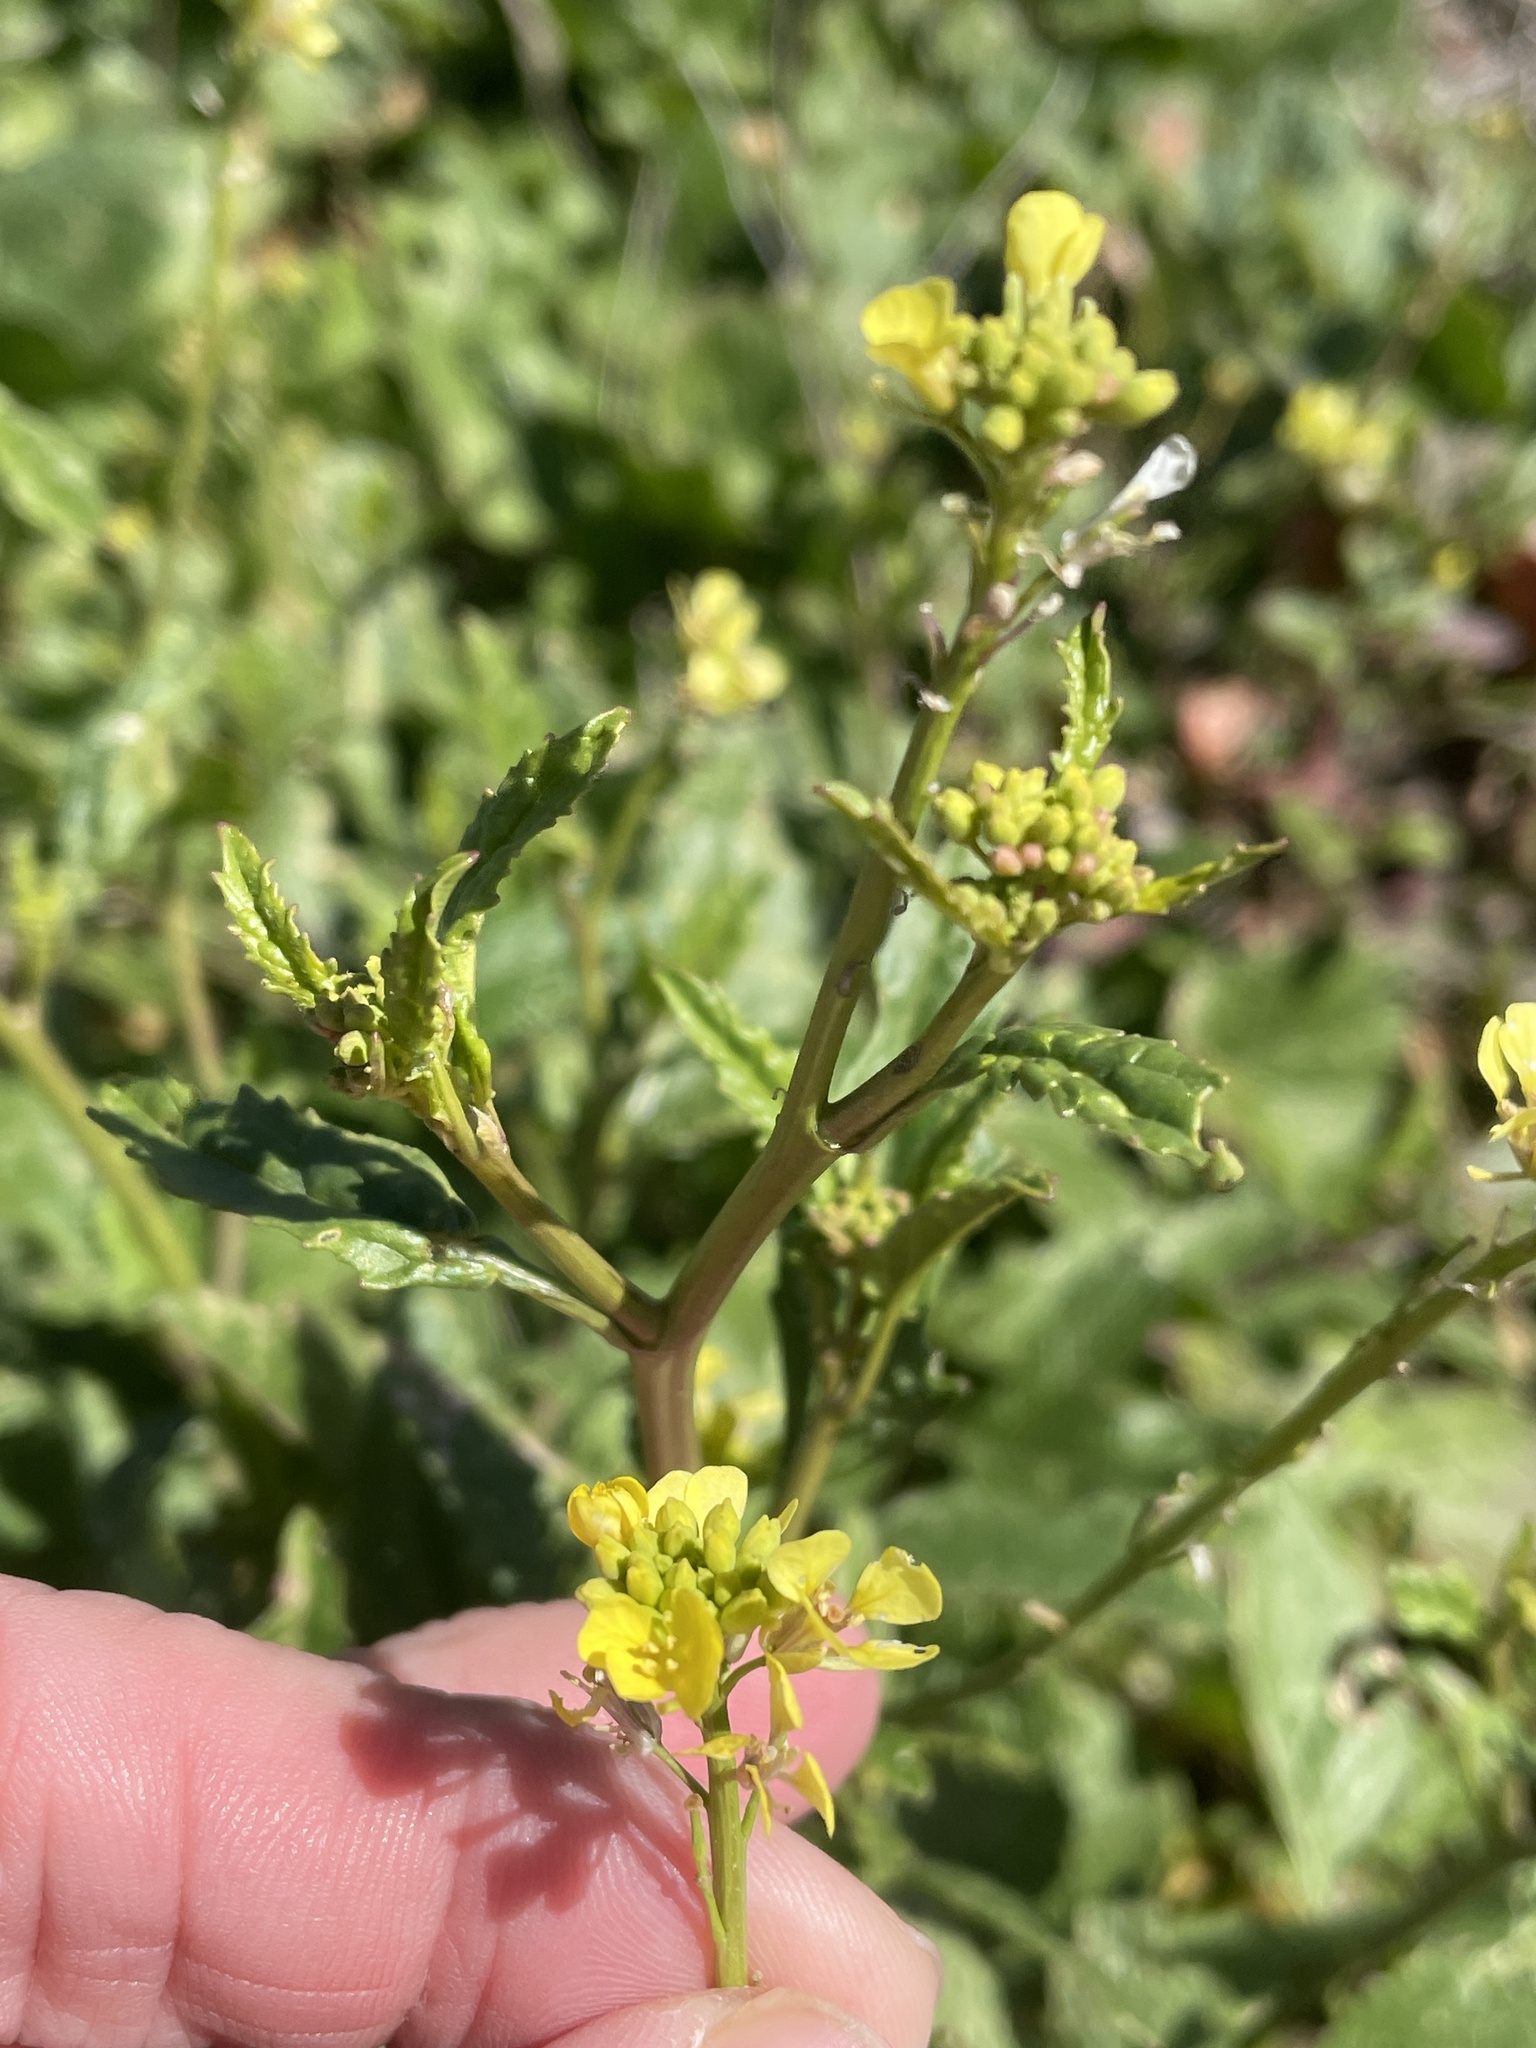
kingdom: Plantae
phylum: Tracheophyta
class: Magnoliopsida
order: Brassicales
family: Brassicaceae
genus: Rapistrum
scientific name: Rapistrum rugosum
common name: Annual bastardcabbage
